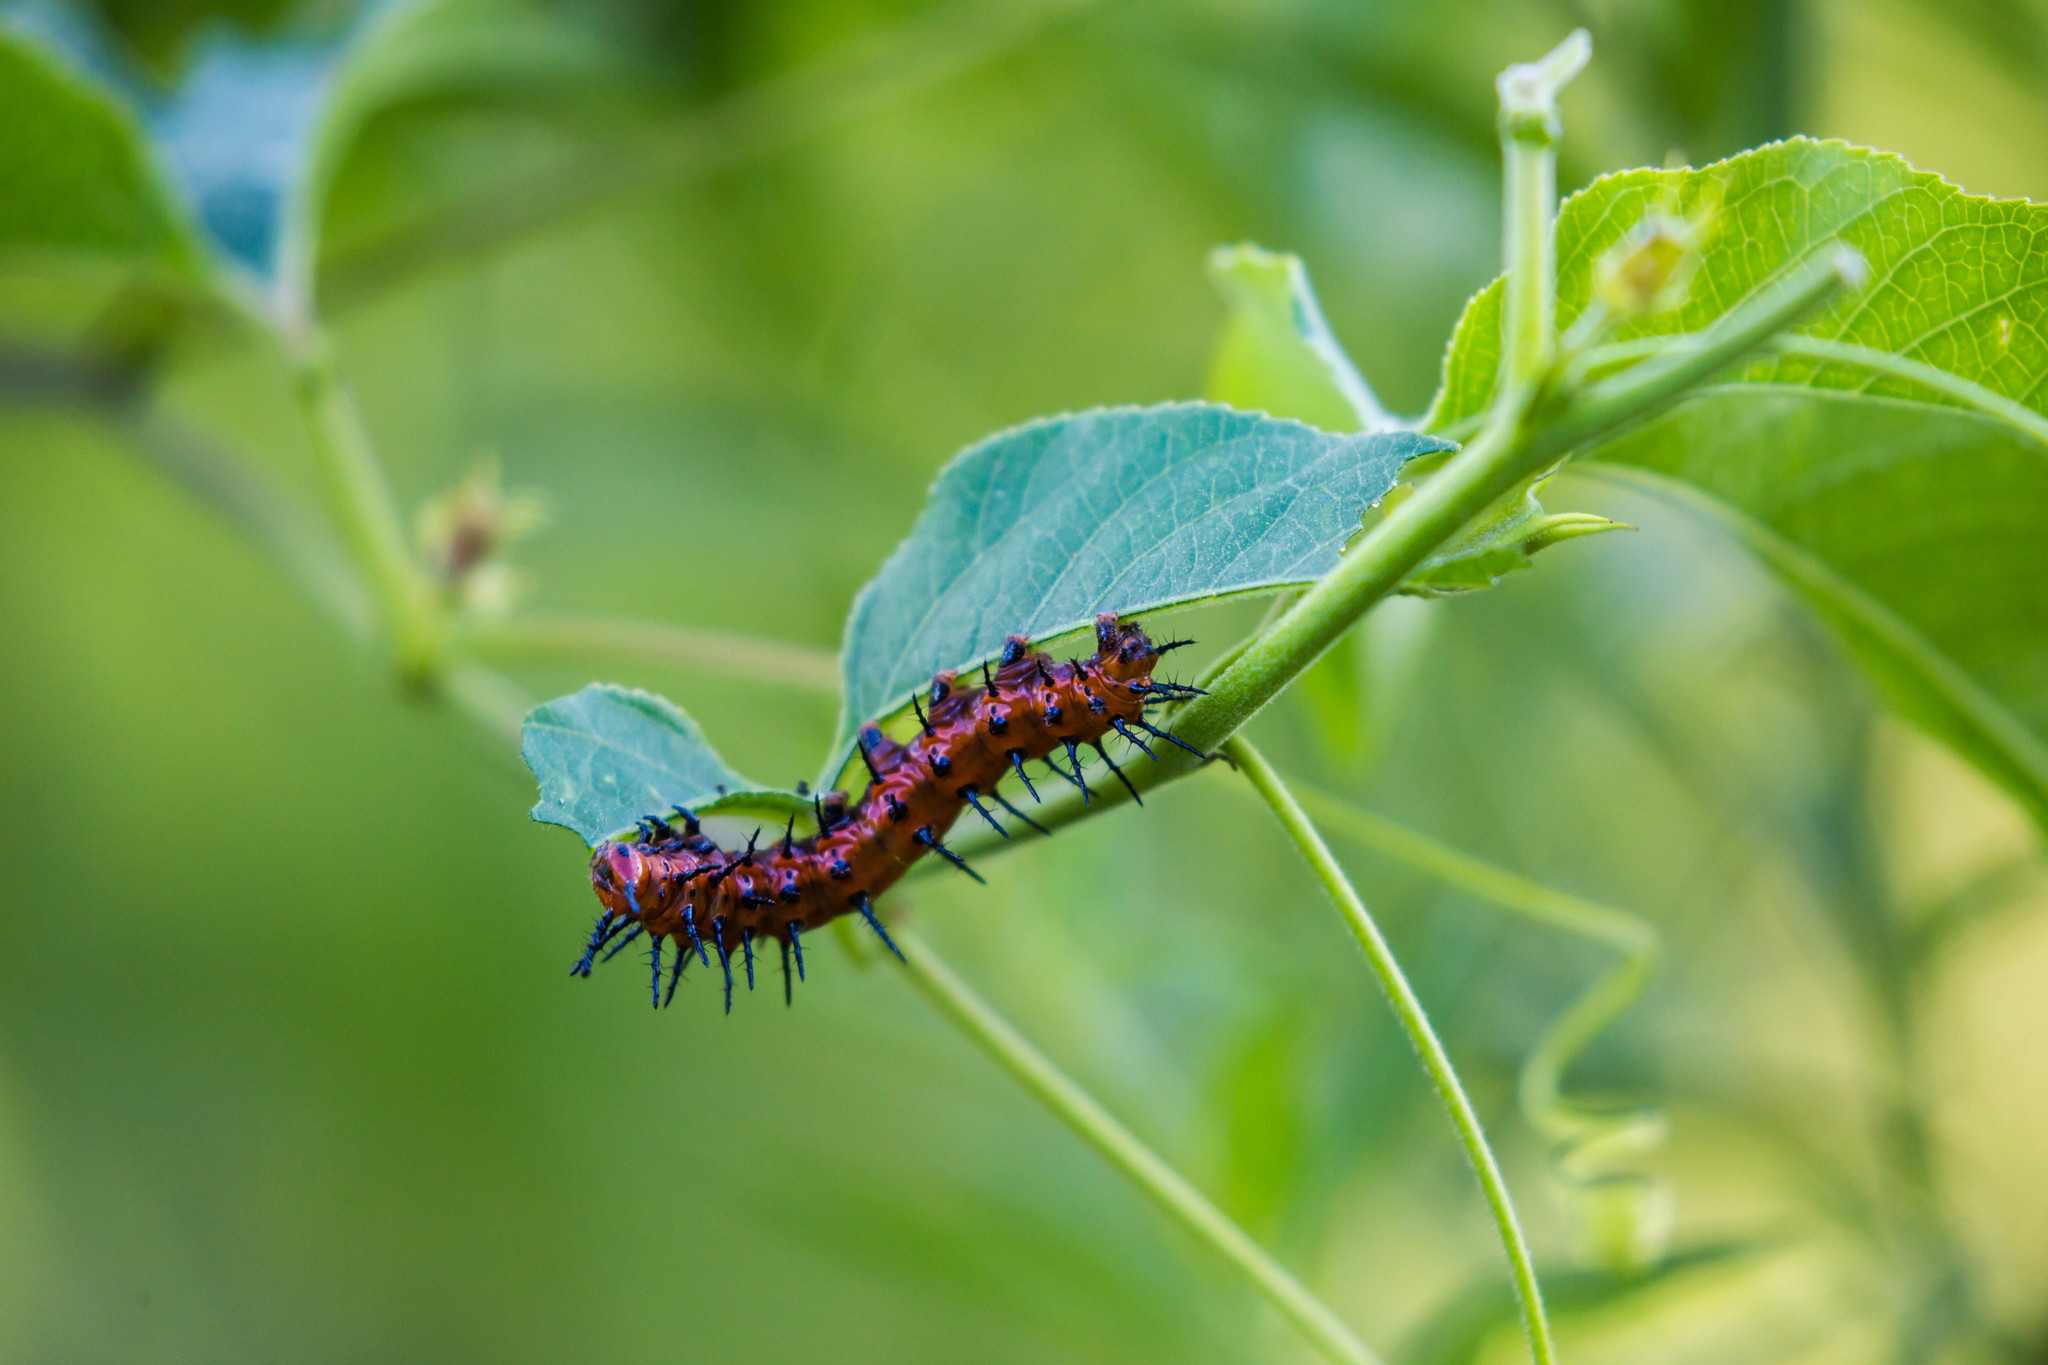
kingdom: Animalia
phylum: Arthropoda
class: Insecta
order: Lepidoptera
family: Nymphalidae
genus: Dione
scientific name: Dione vanillae
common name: Gulf fritillary
